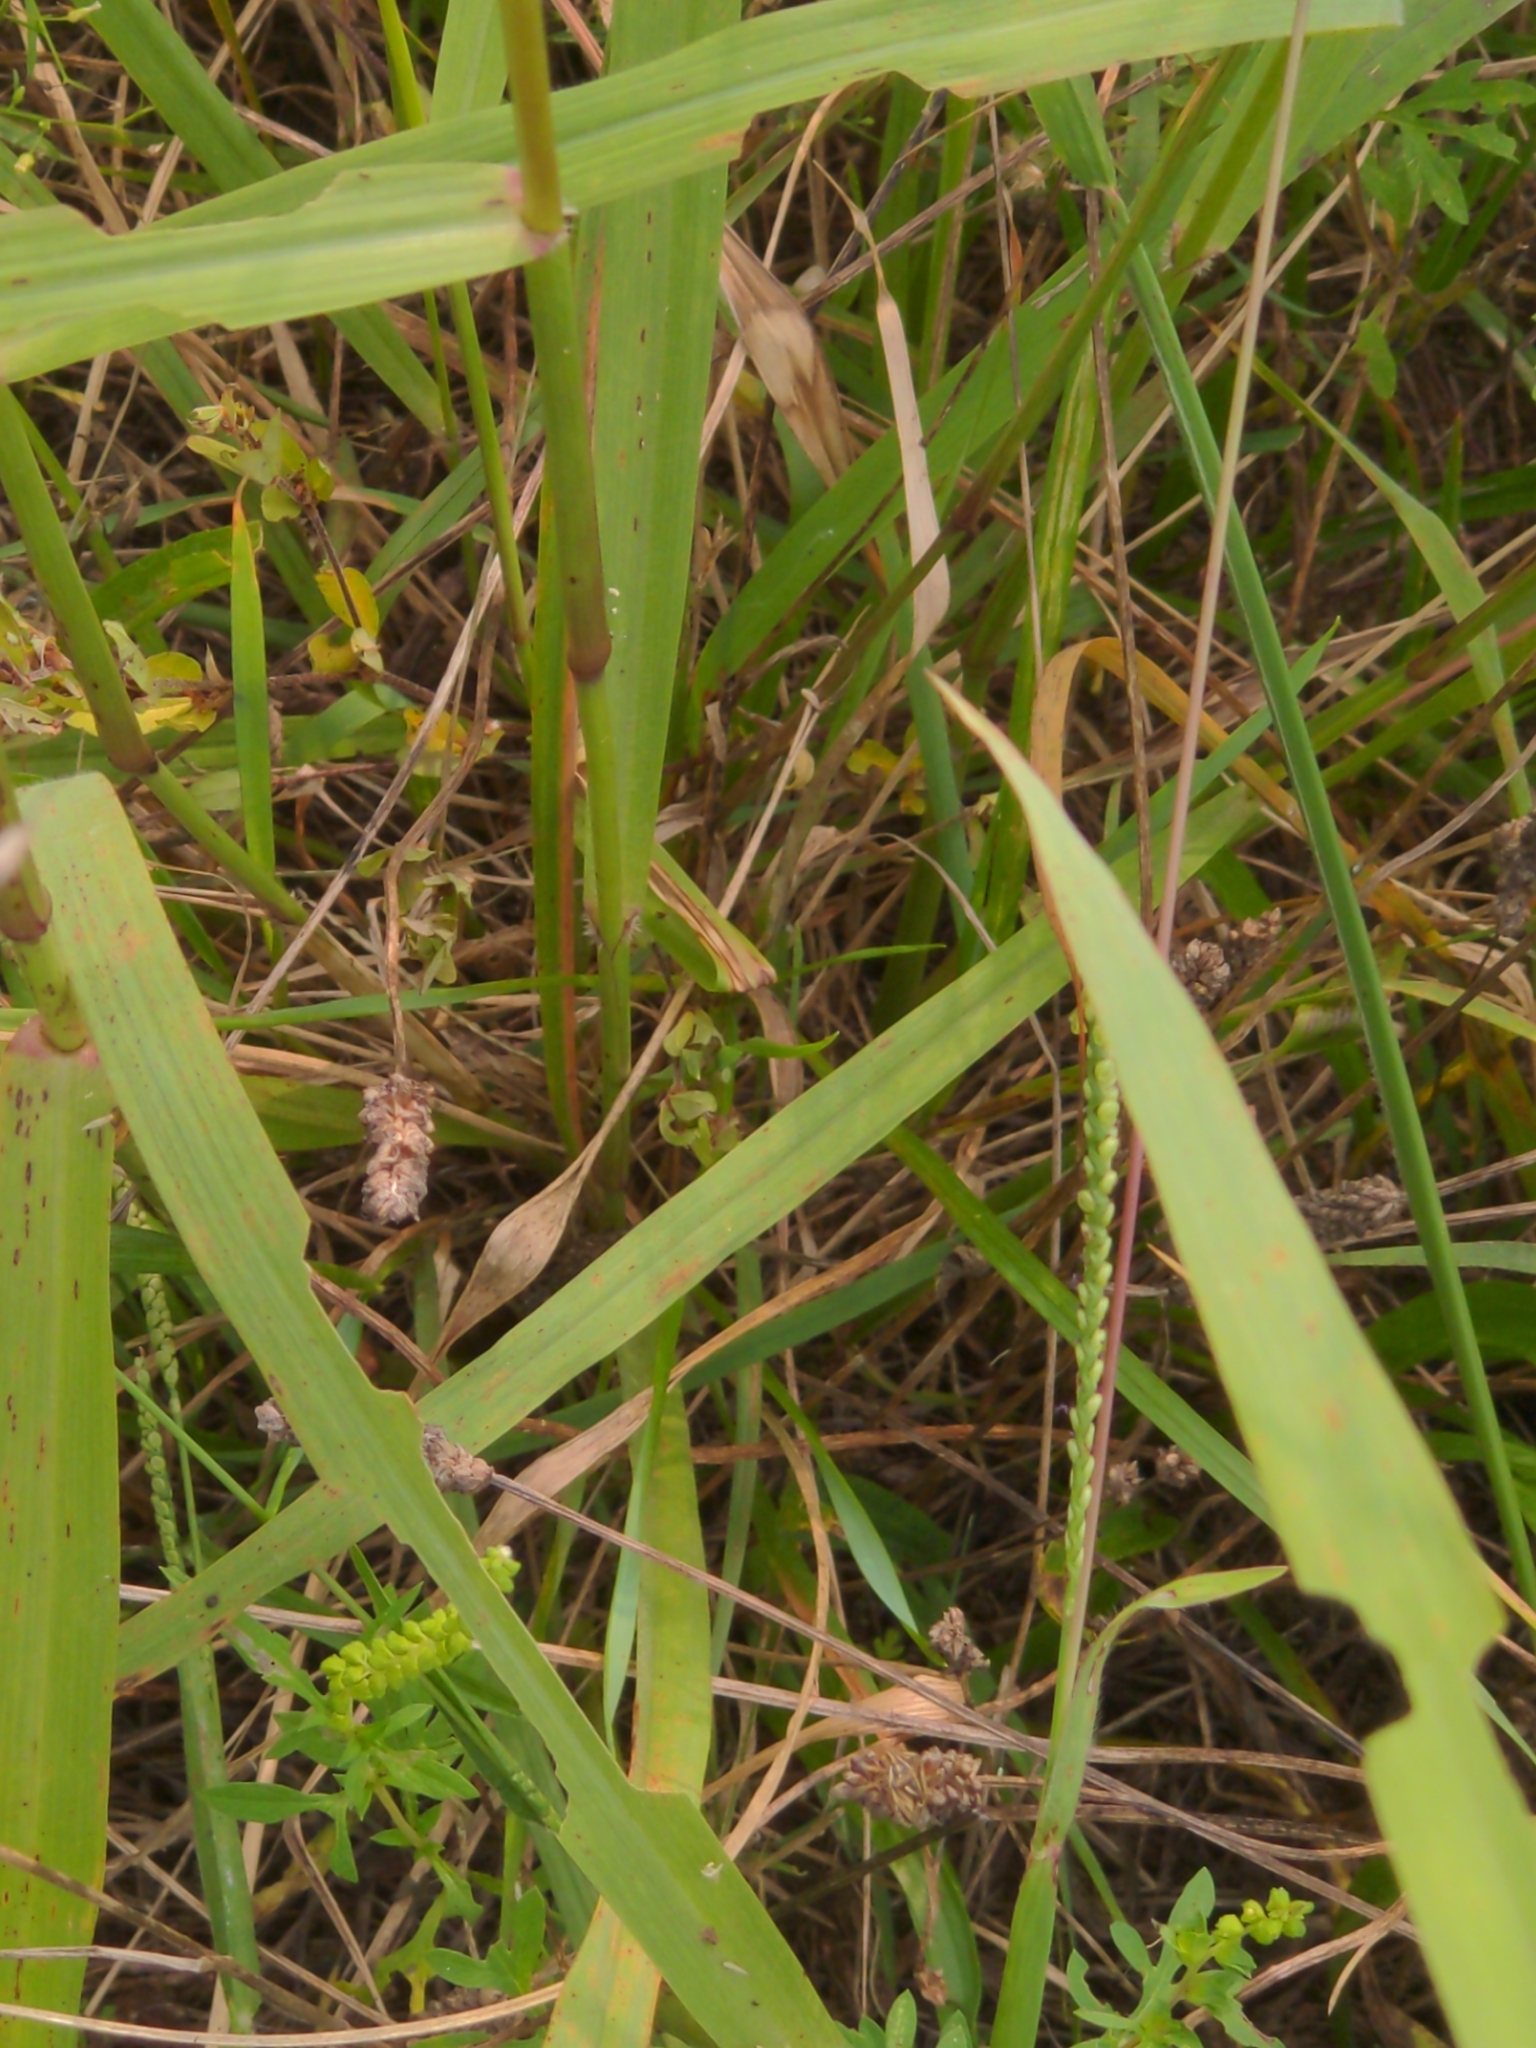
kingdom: Plantae
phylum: Tracheophyta
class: Liliopsida
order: Poales
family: Poaceae
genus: Tridens
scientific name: Tridens flavus
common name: Purpletop
